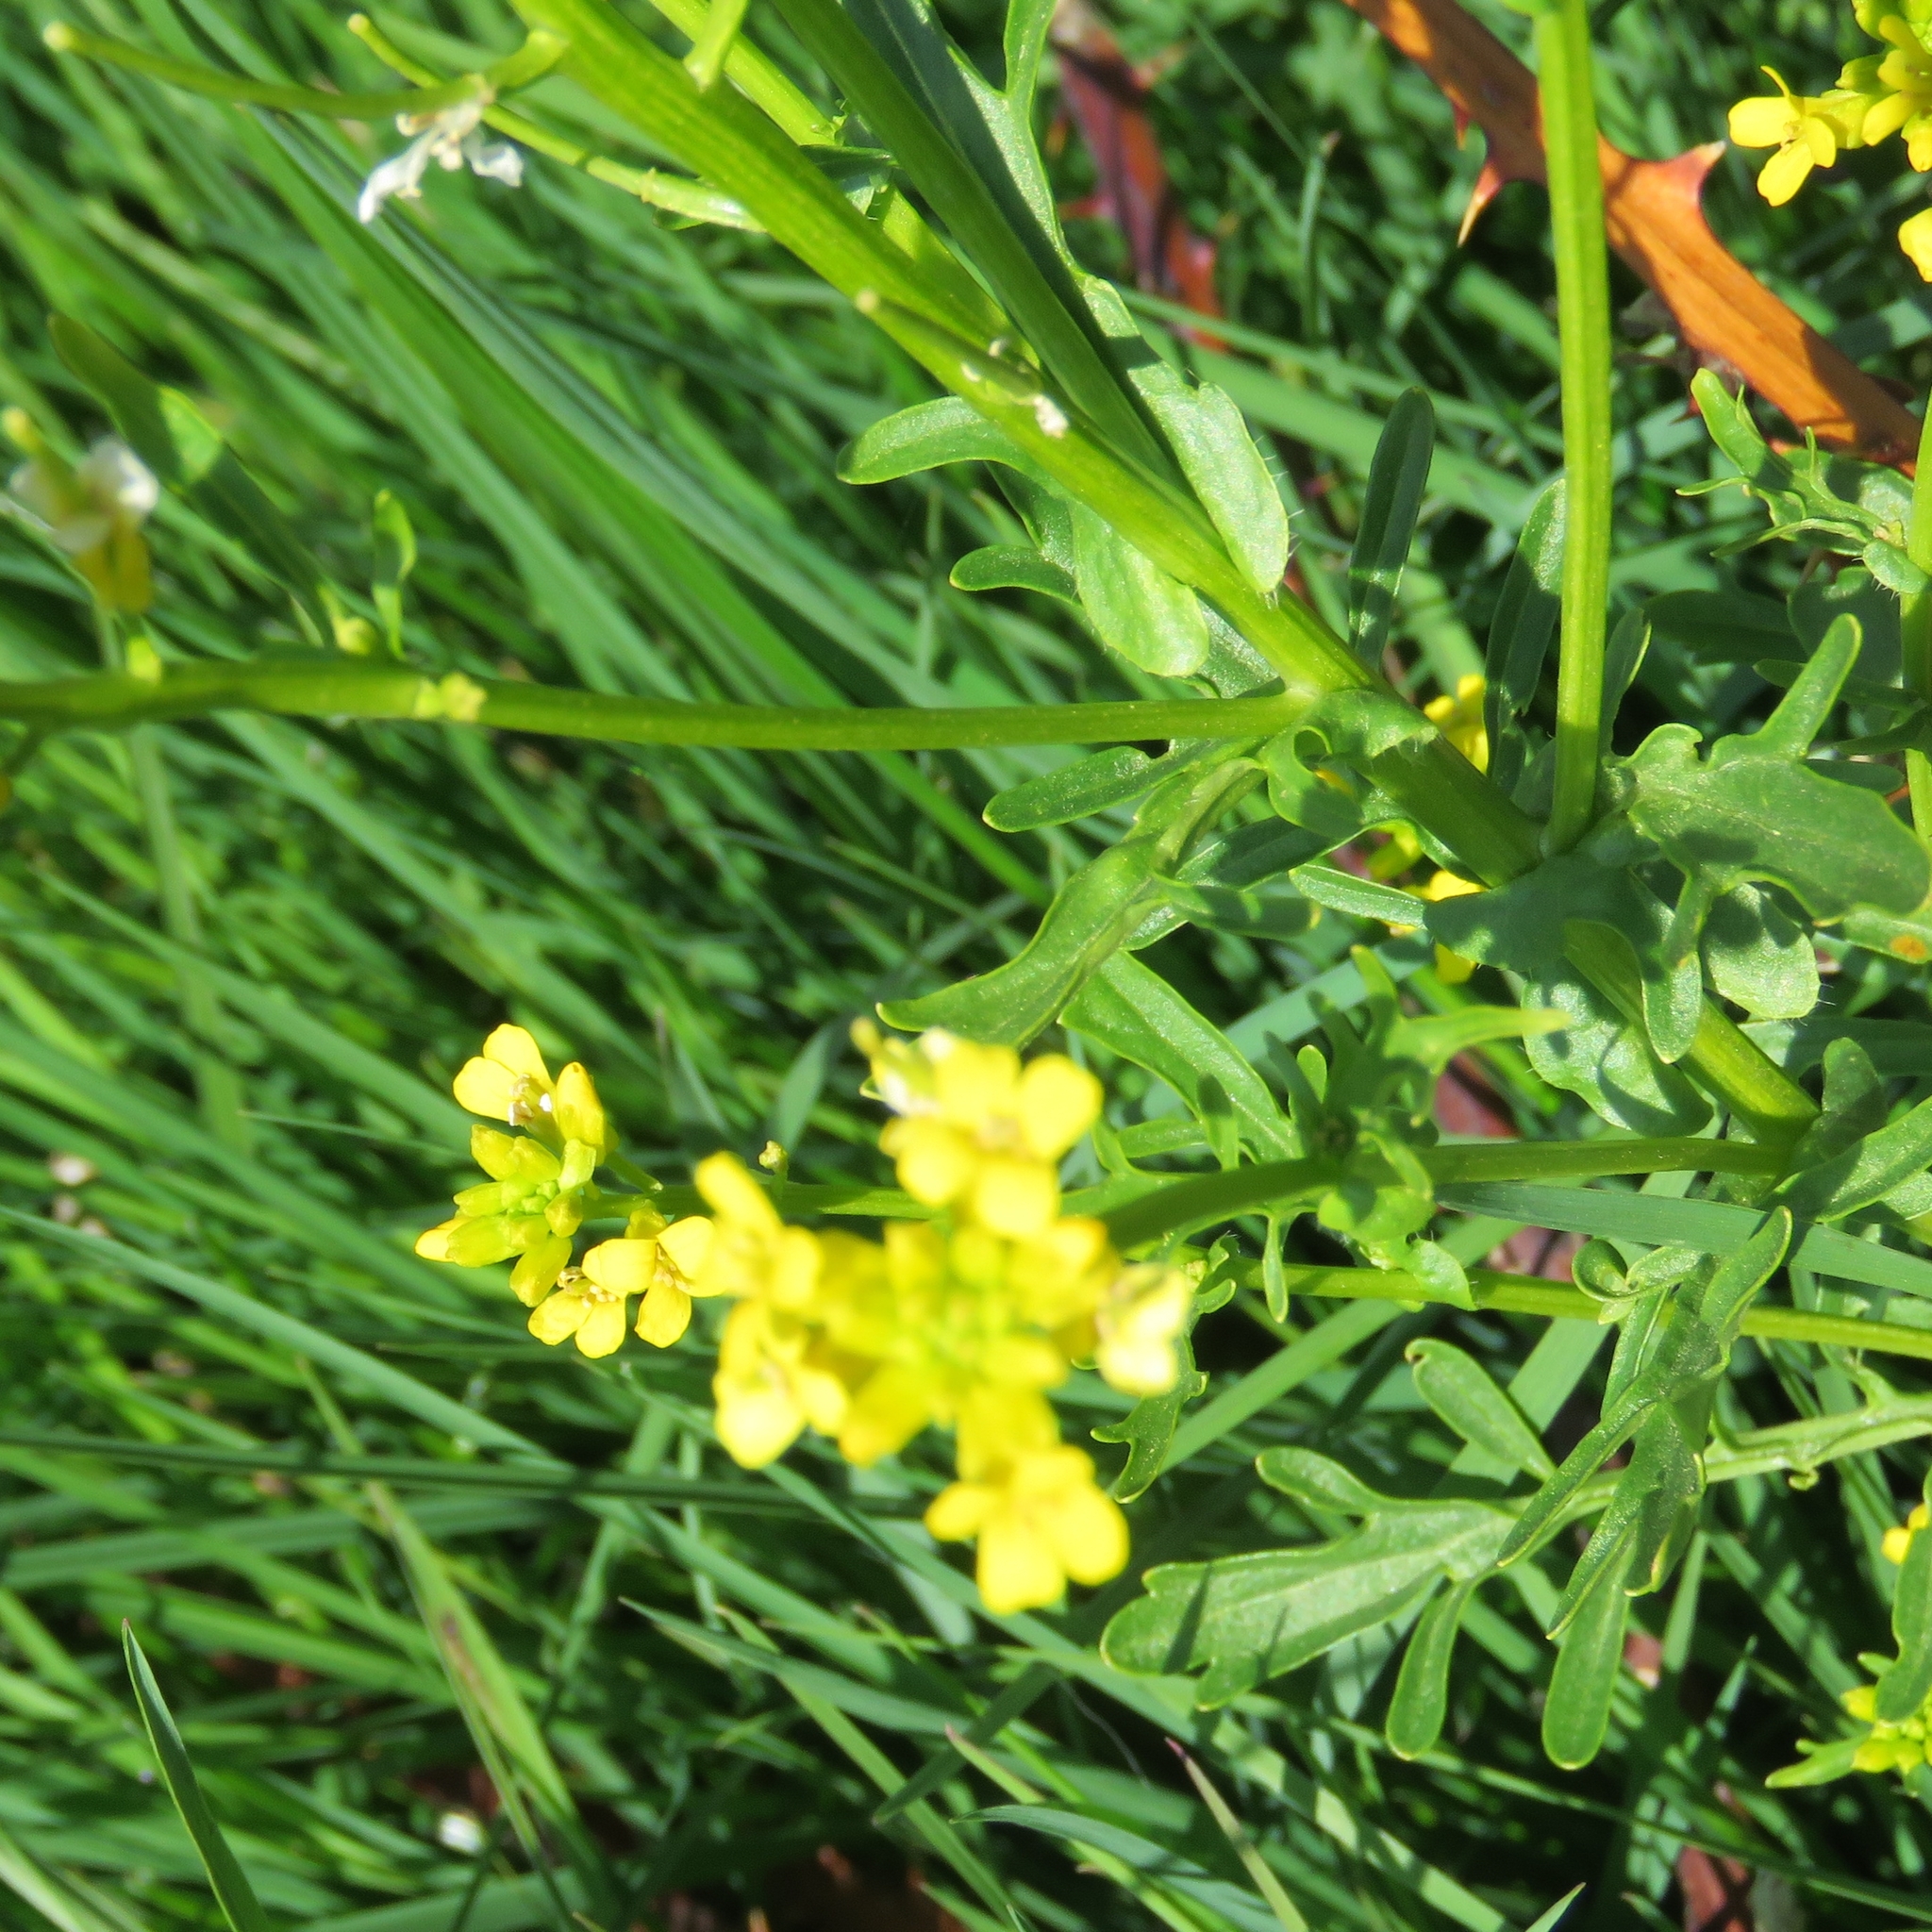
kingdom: Plantae
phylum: Tracheophyta
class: Magnoliopsida
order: Brassicales
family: Brassicaceae
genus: Barbarea
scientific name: Barbarea vulgaris
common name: Cressy-greens
